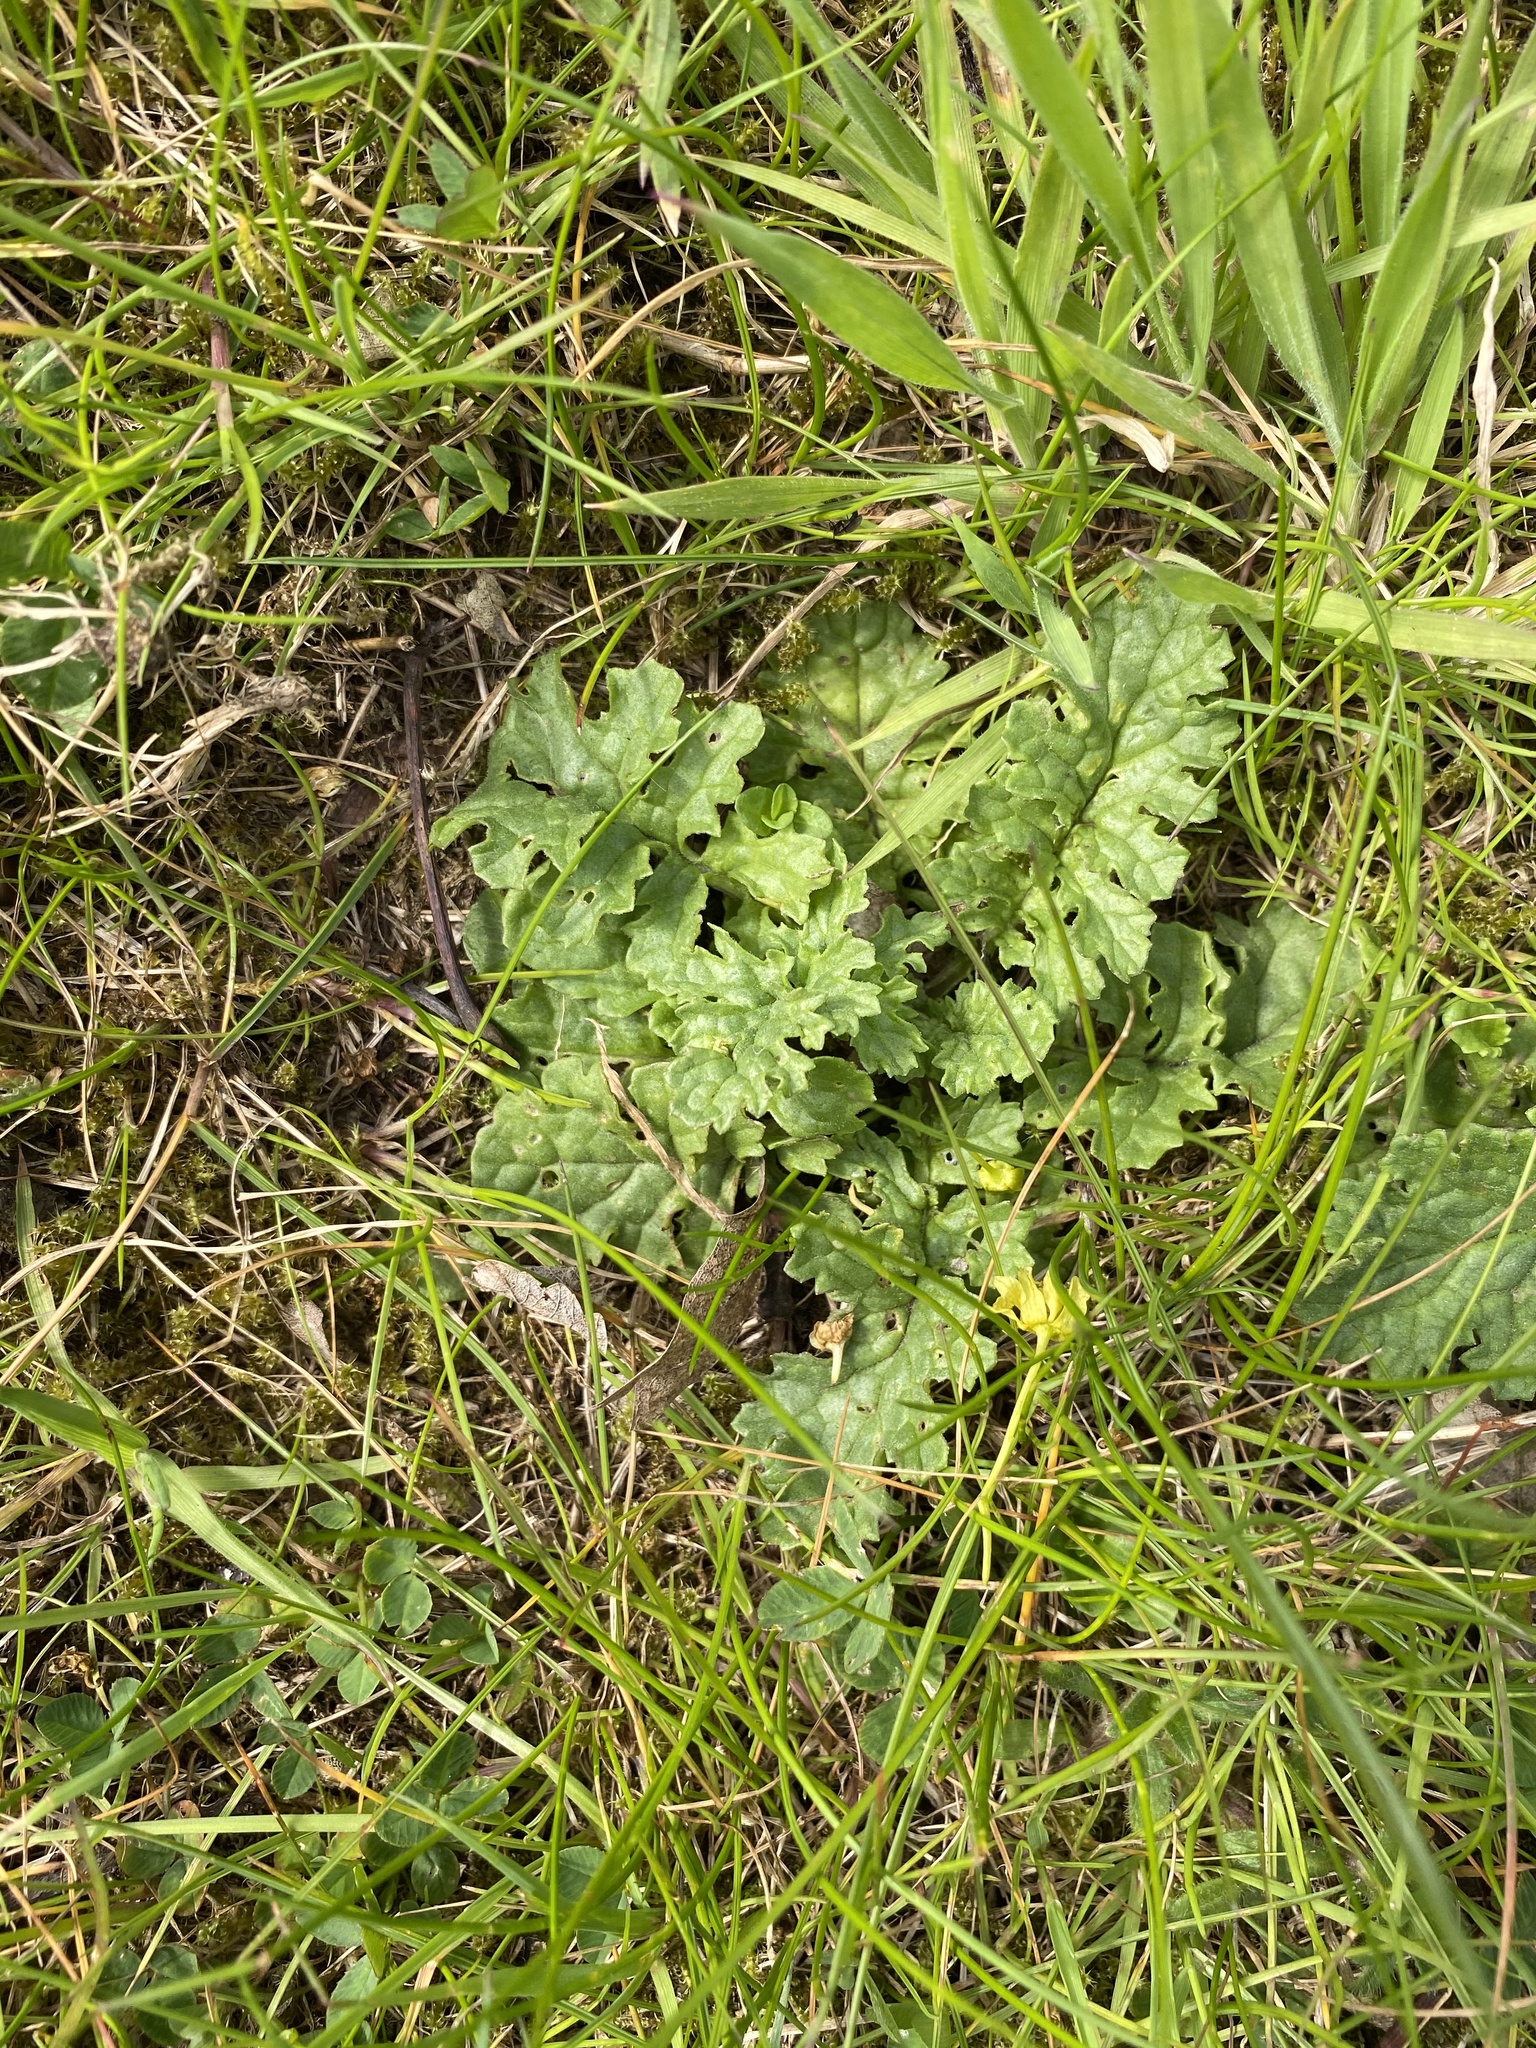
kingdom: Plantae
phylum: Tracheophyta
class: Magnoliopsida
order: Asterales
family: Asteraceae
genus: Jacobaea
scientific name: Jacobaea vulgaris
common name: Stinking willie
